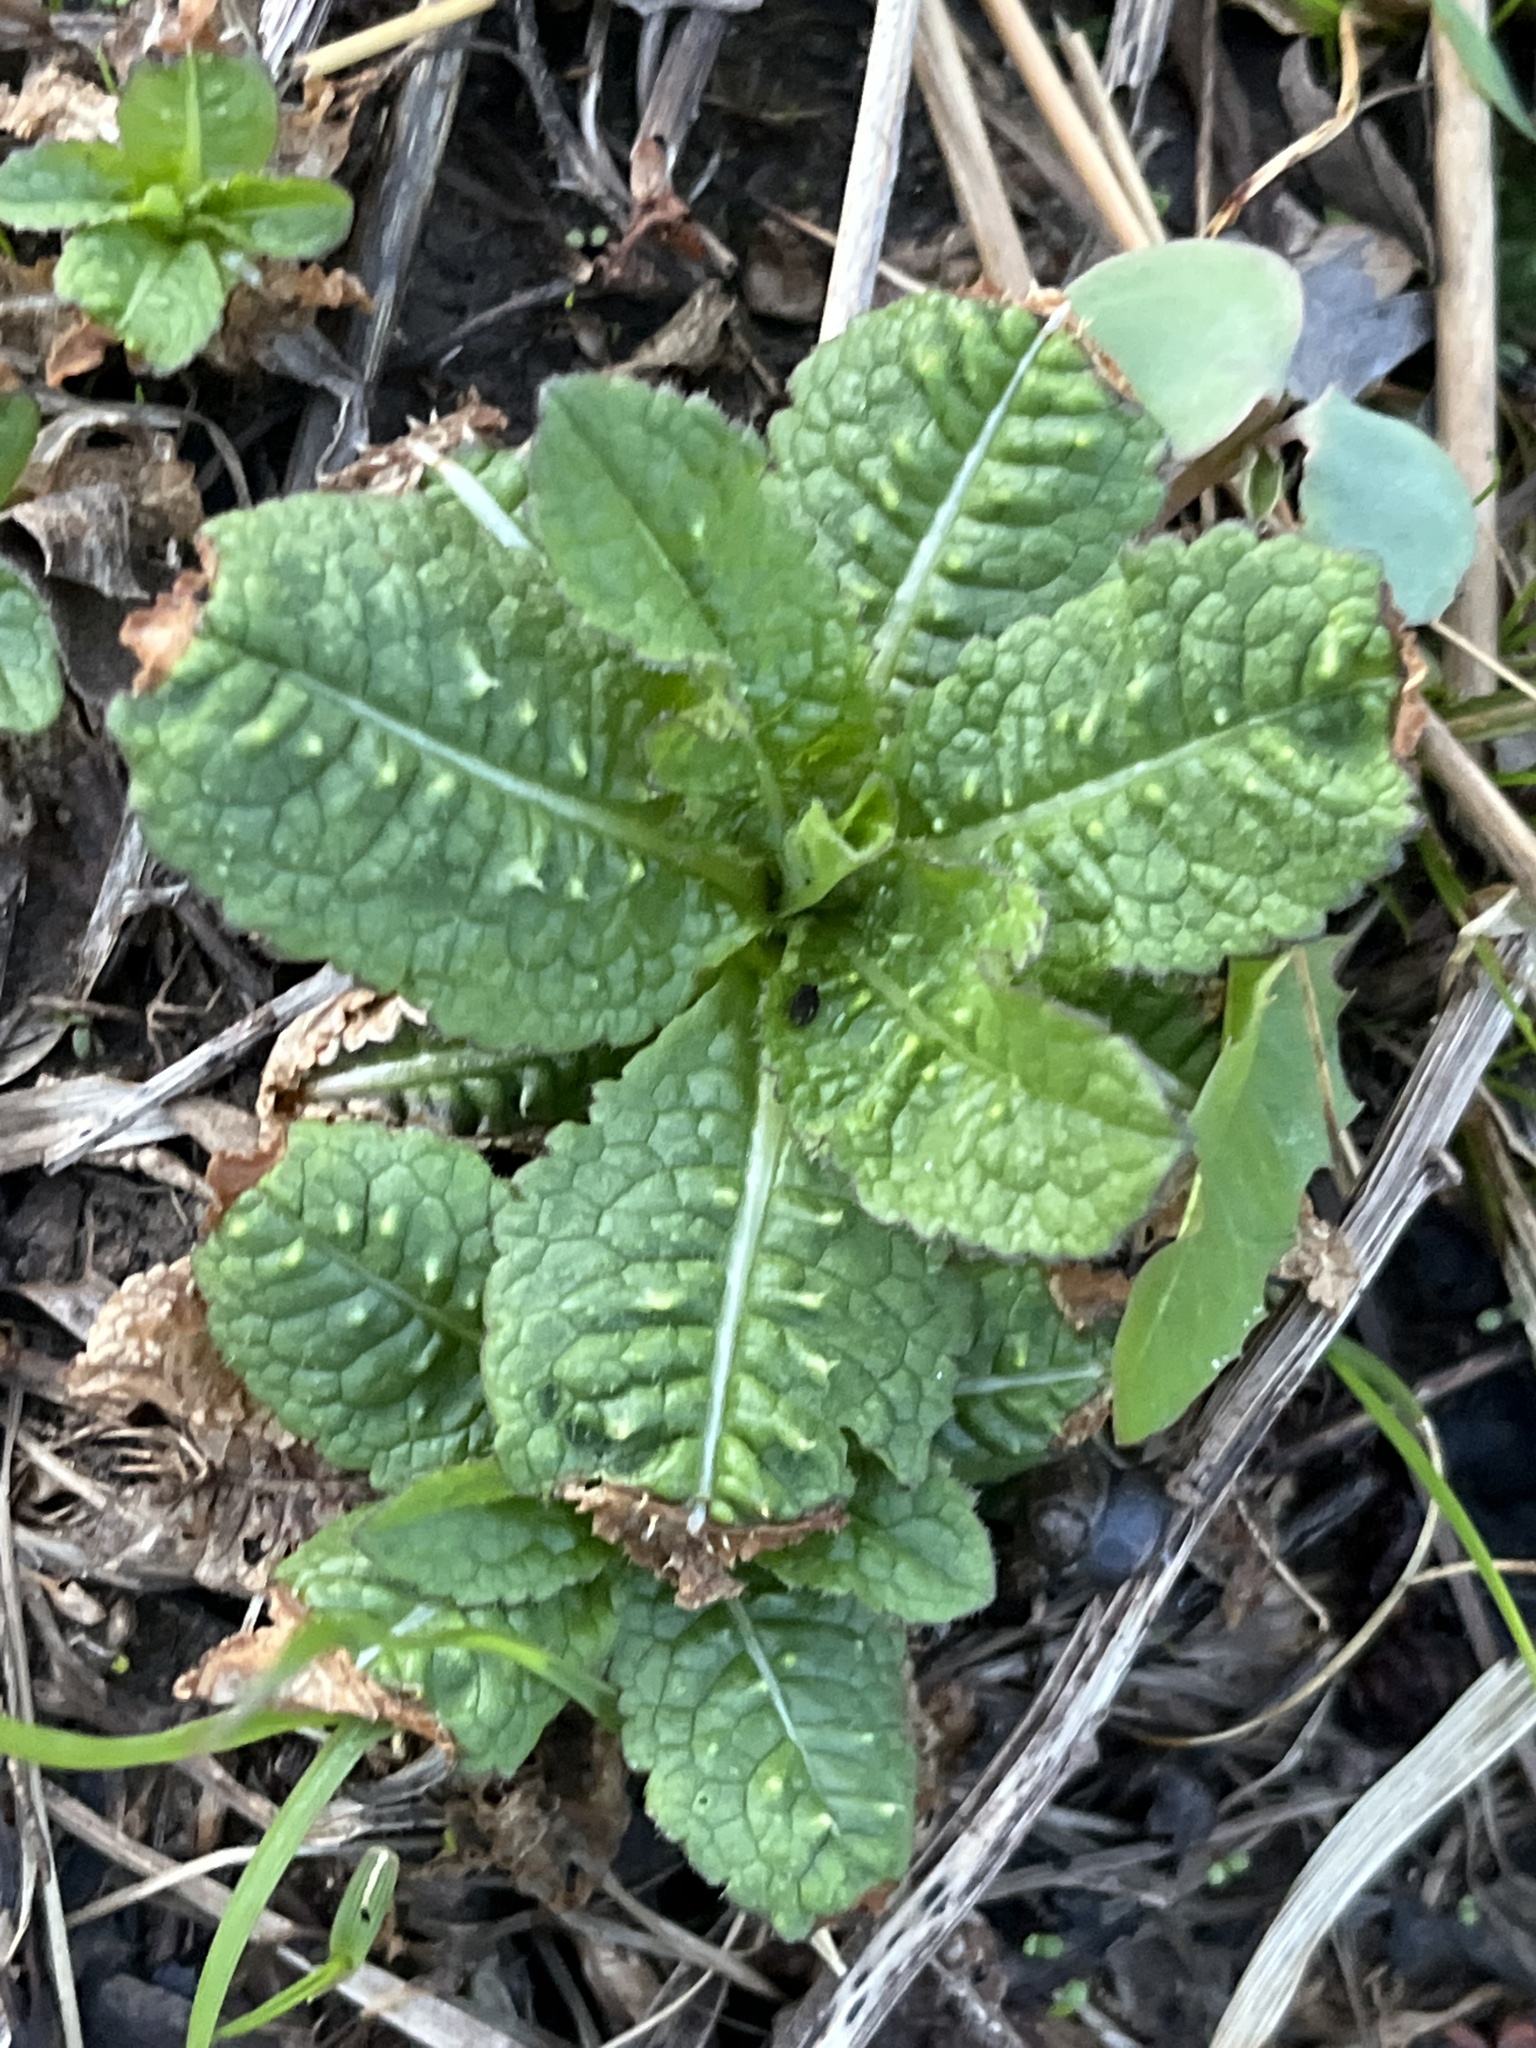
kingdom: Plantae
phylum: Tracheophyta
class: Magnoliopsida
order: Dipsacales
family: Caprifoliaceae
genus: Dipsacus
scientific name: Dipsacus fullonum
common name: Teasel
